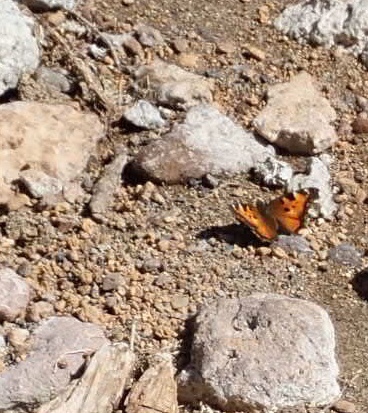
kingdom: Animalia
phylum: Arthropoda
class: Insecta
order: Lepidoptera
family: Nymphalidae
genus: Nymphalis
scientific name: Nymphalis californica
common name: California tortoiseshell
